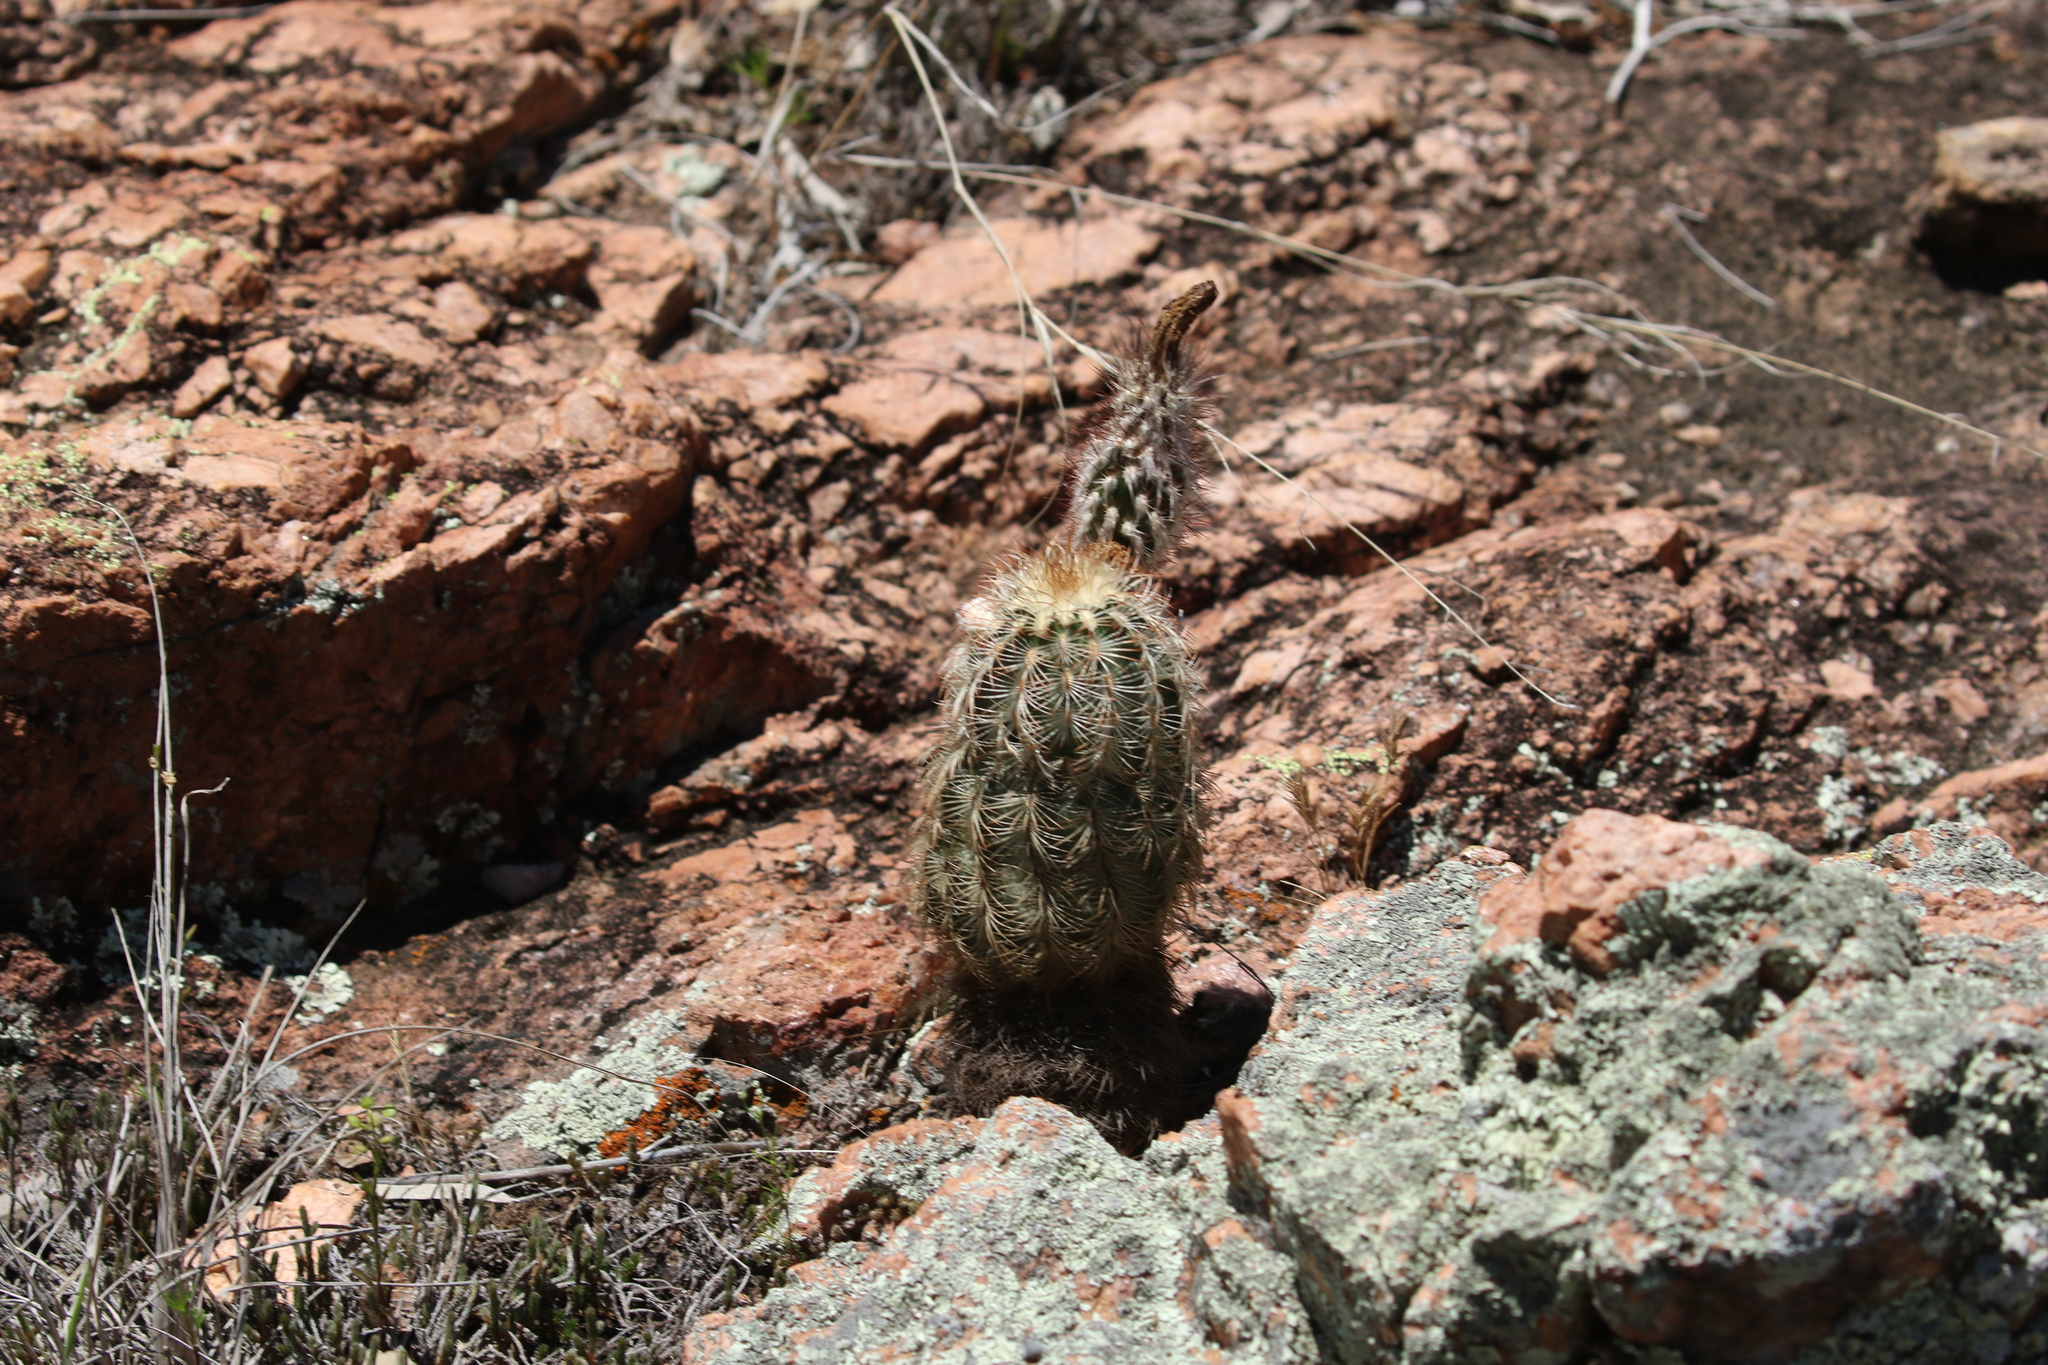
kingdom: Plantae
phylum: Tracheophyta
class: Magnoliopsida
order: Caryophyllales
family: Cactaceae
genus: Echinocereus
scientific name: Echinocereus reichenbachii
